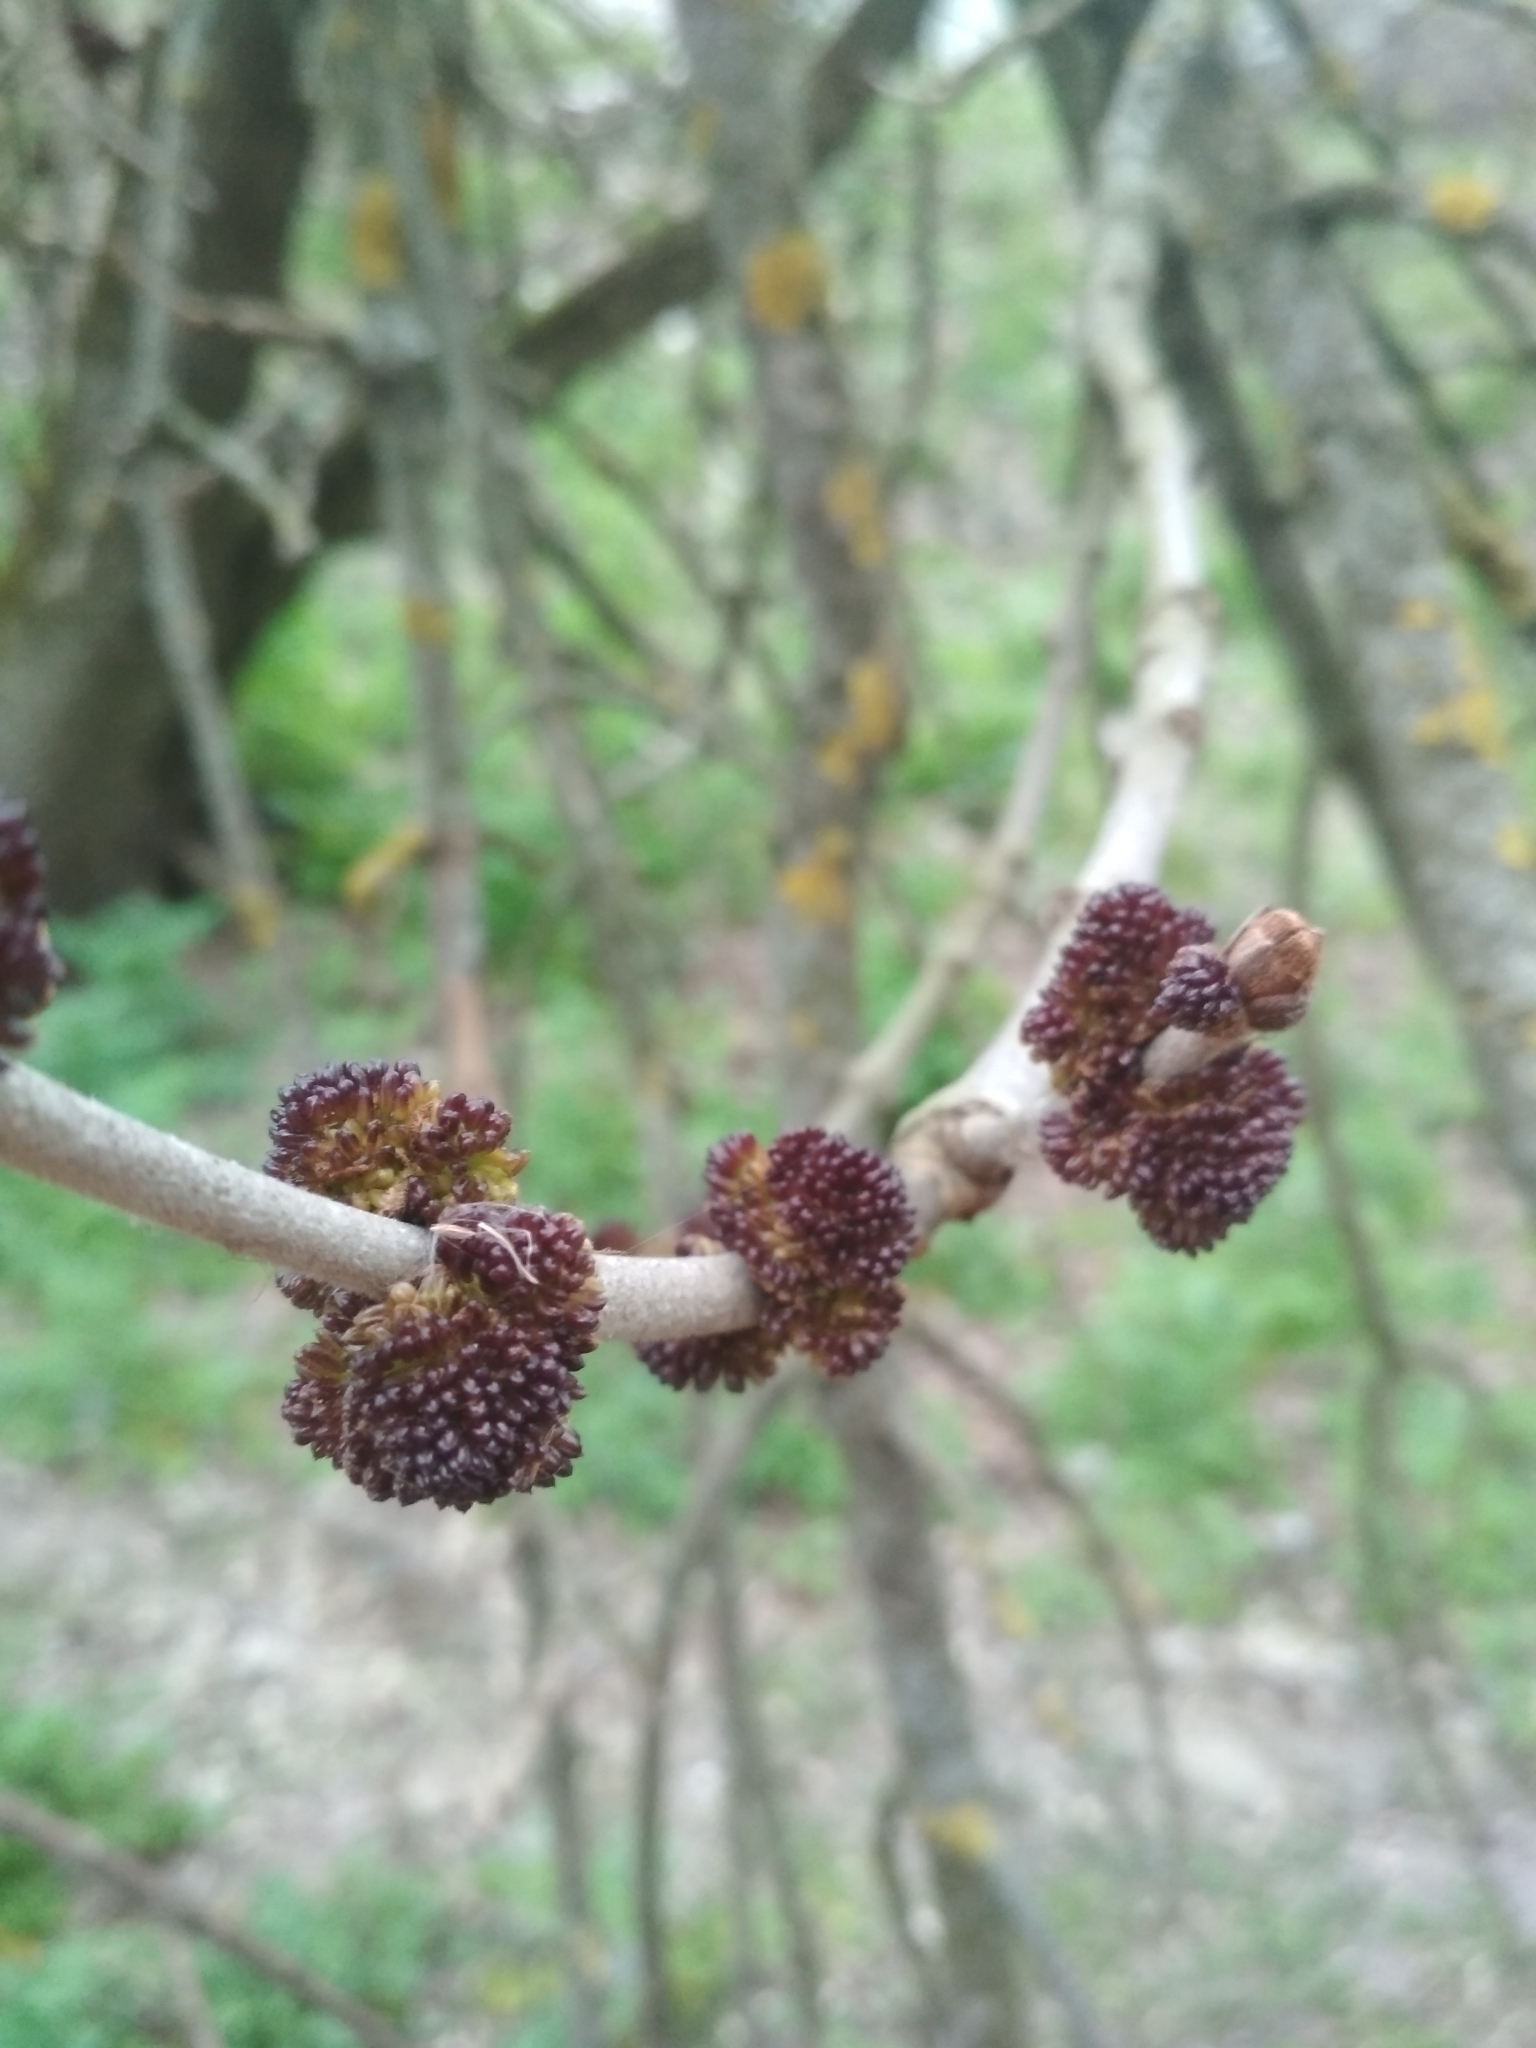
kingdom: Plantae
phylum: Tracheophyta
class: Magnoliopsida
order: Lamiales
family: Oleaceae
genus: Fraxinus
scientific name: Fraxinus pennsylvanica
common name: Green ash
